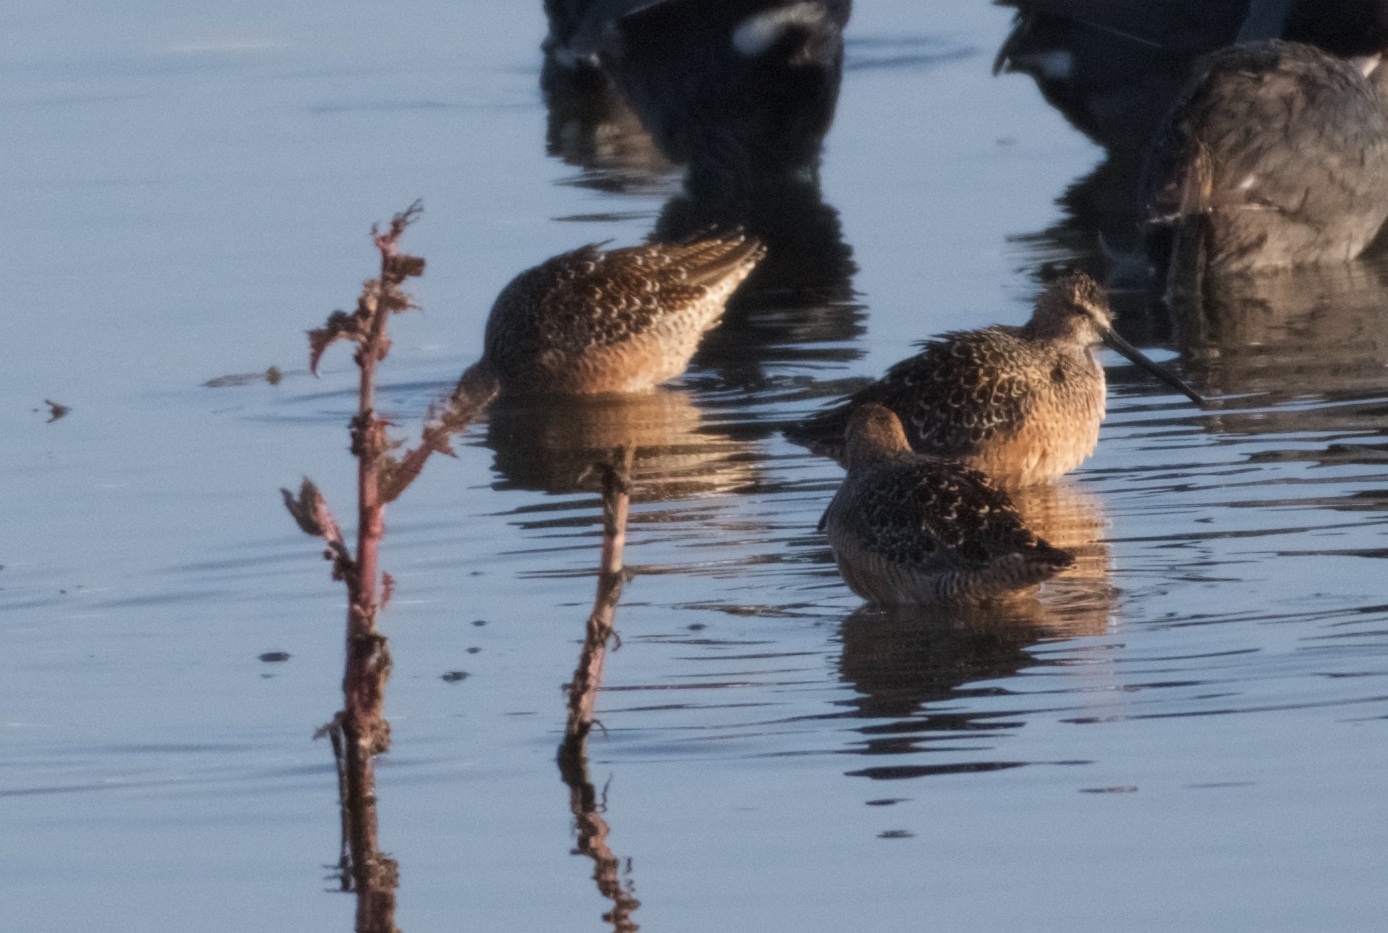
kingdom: Animalia
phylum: Chordata
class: Aves
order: Charadriiformes
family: Scolopacidae
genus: Limnodromus
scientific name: Limnodromus scolopaceus
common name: Long-billed dowitcher
